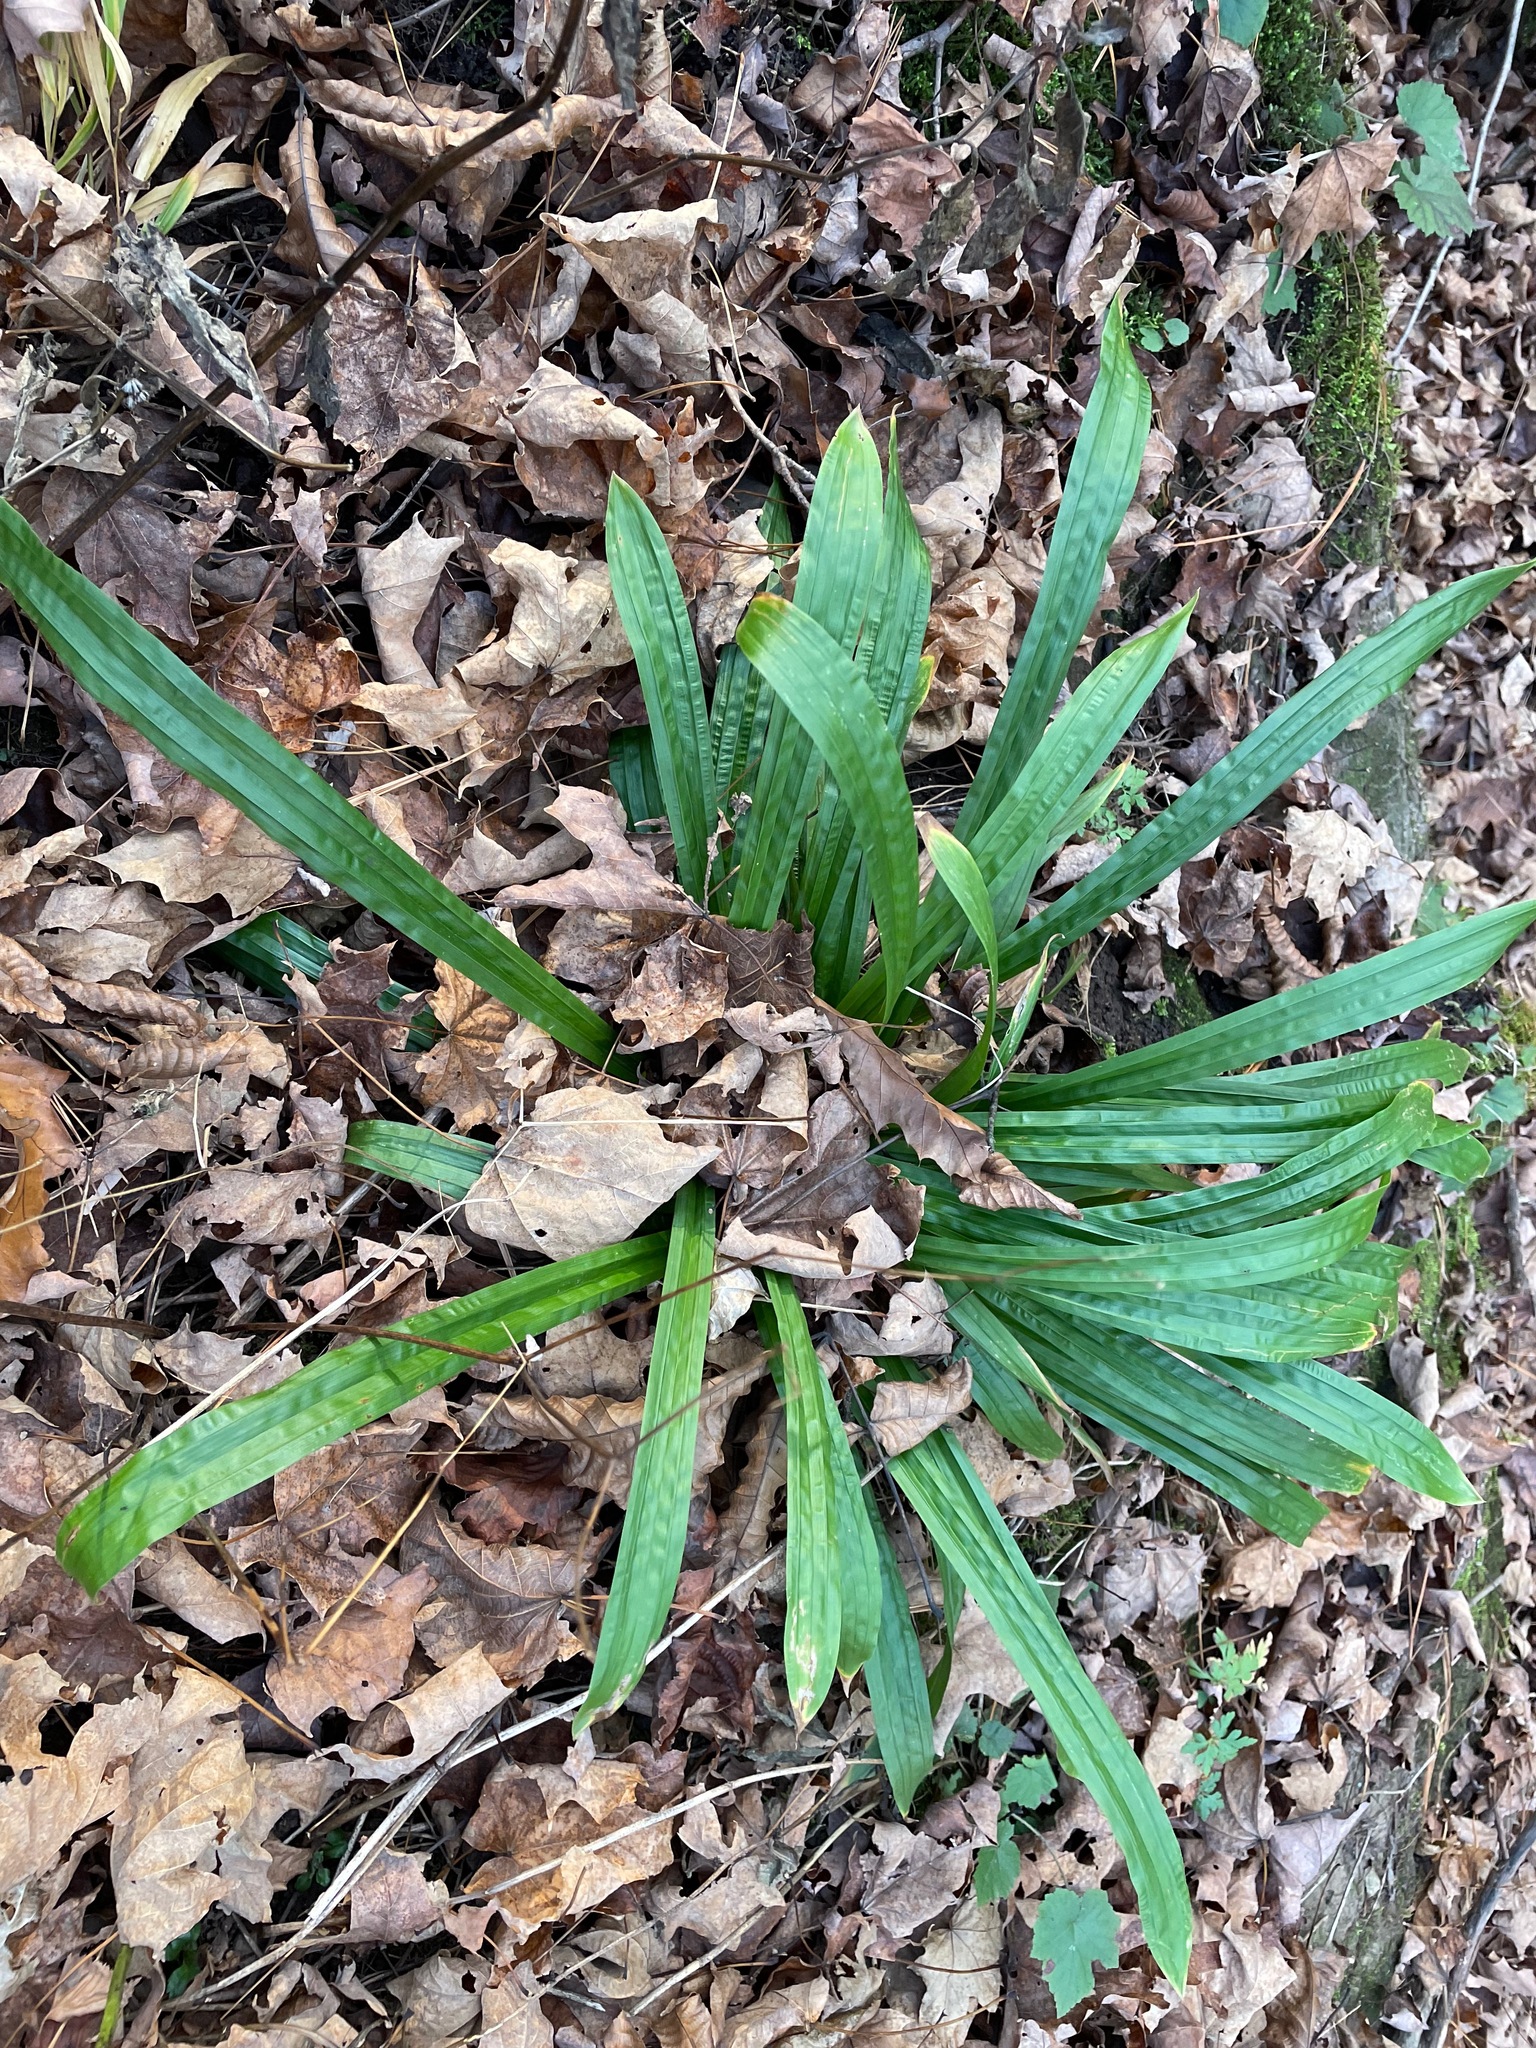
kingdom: Plantae
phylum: Tracheophyta
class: Liliopsida
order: Poales
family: Cyperaceae
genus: Carex
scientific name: Carex plantaginea
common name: Plantain-leaved sedge
